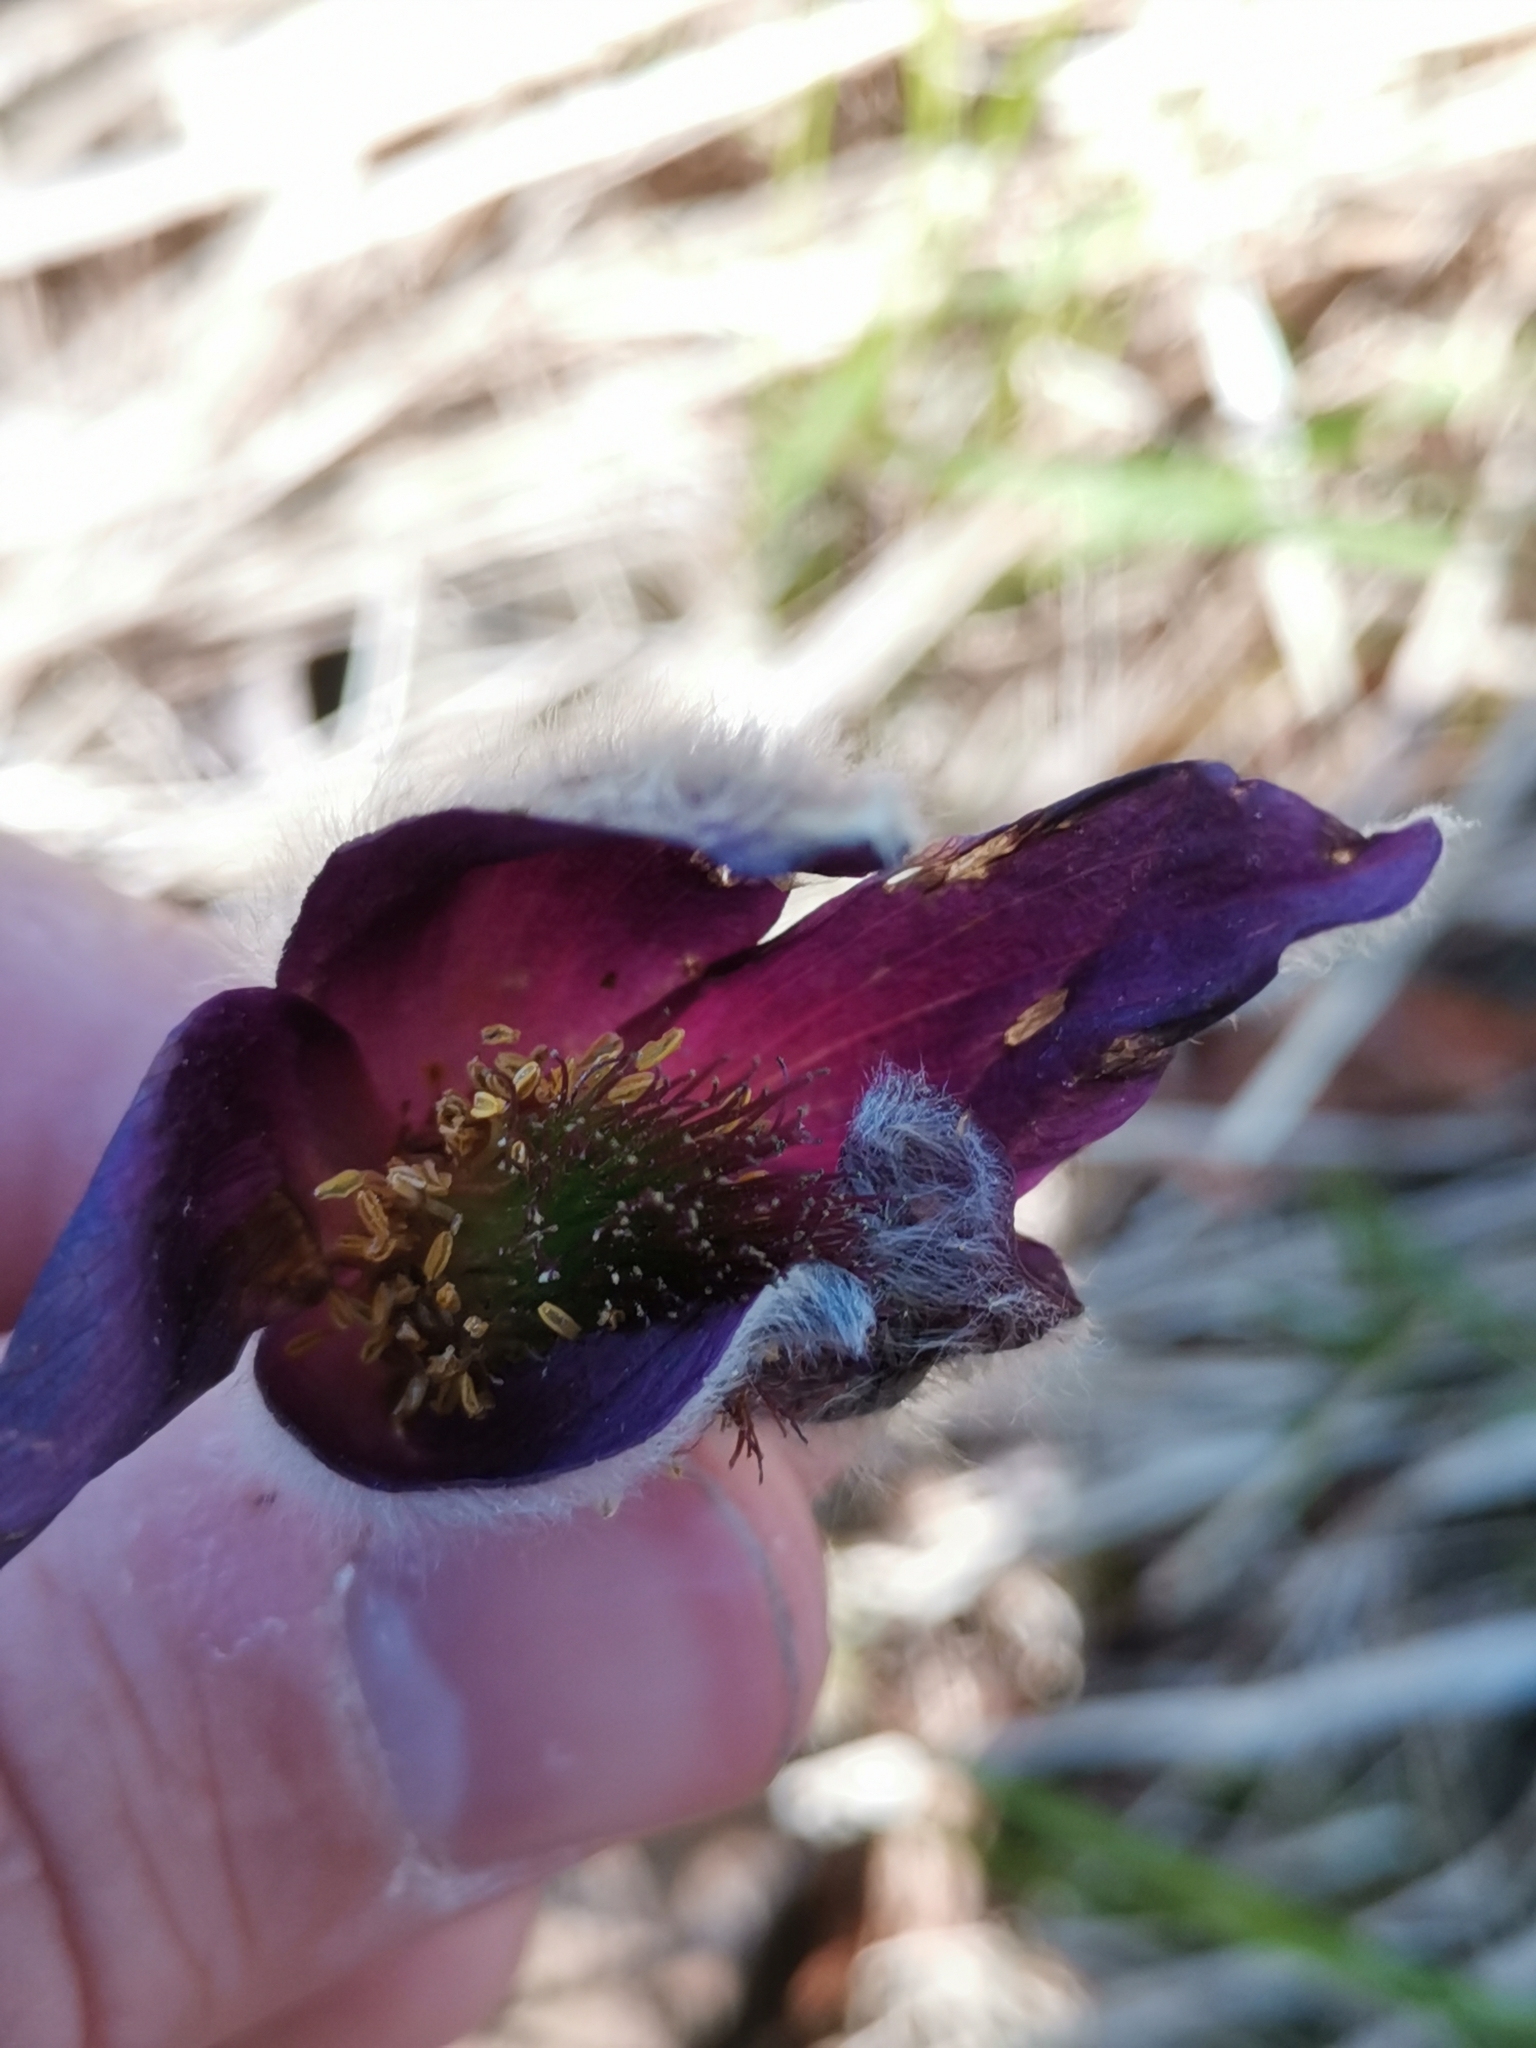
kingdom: Plantae
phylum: Tracheophyta
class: Magnoliopsida
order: Ranunculales
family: Ranunculaceae
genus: Pulsatilla
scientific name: Pulsatilla montana
